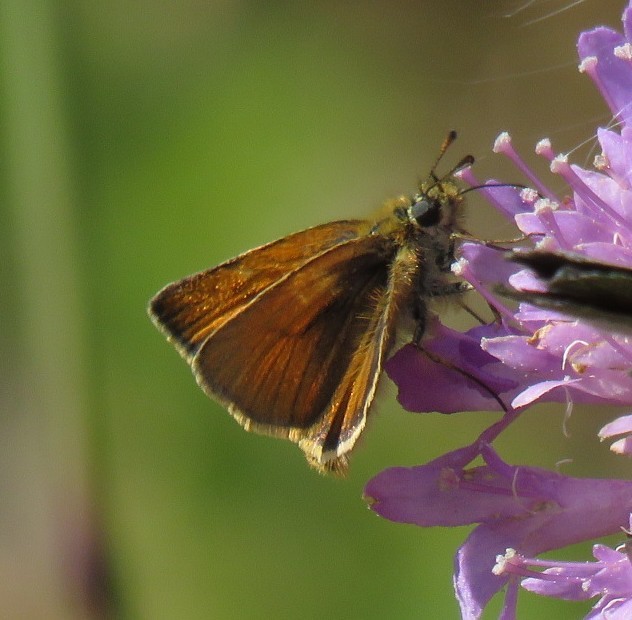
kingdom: Animalia
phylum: Arthropoda
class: Insecta
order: Lepidoptera
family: Hesperiidae
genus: Thymelicus
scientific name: Thymelicus lineola
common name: Essex skipper
